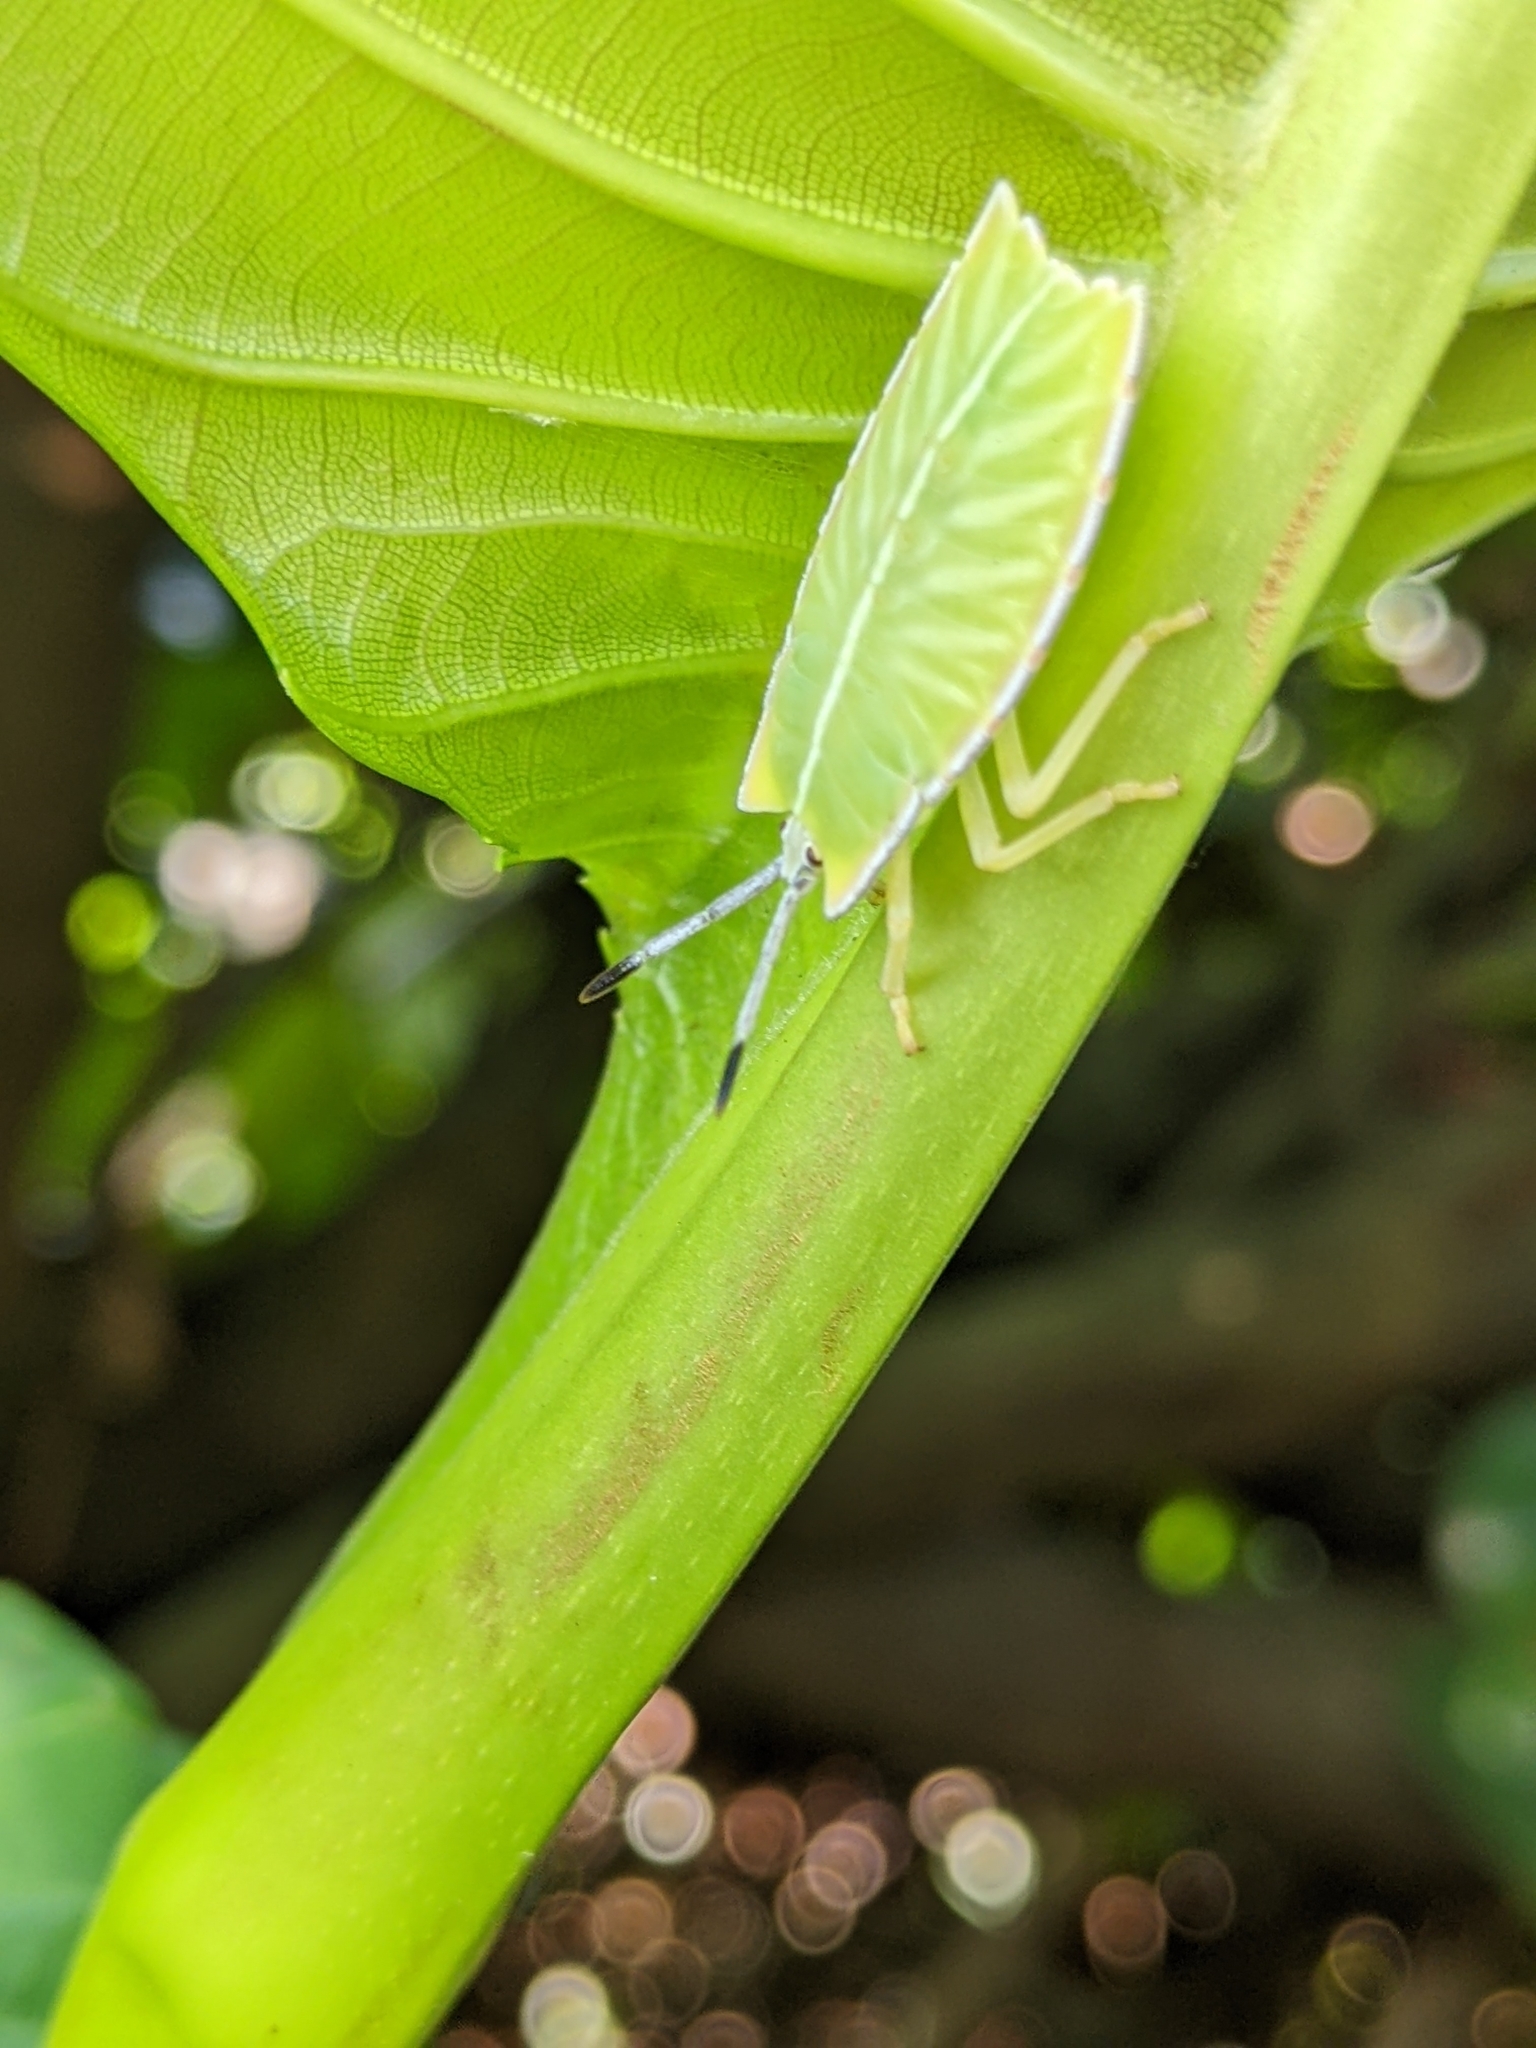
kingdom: Animalia
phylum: Arthropoda
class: Insecta
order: Hemiptera
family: Tessaratomidae
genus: Pycanum
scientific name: Pycanum alternatum
